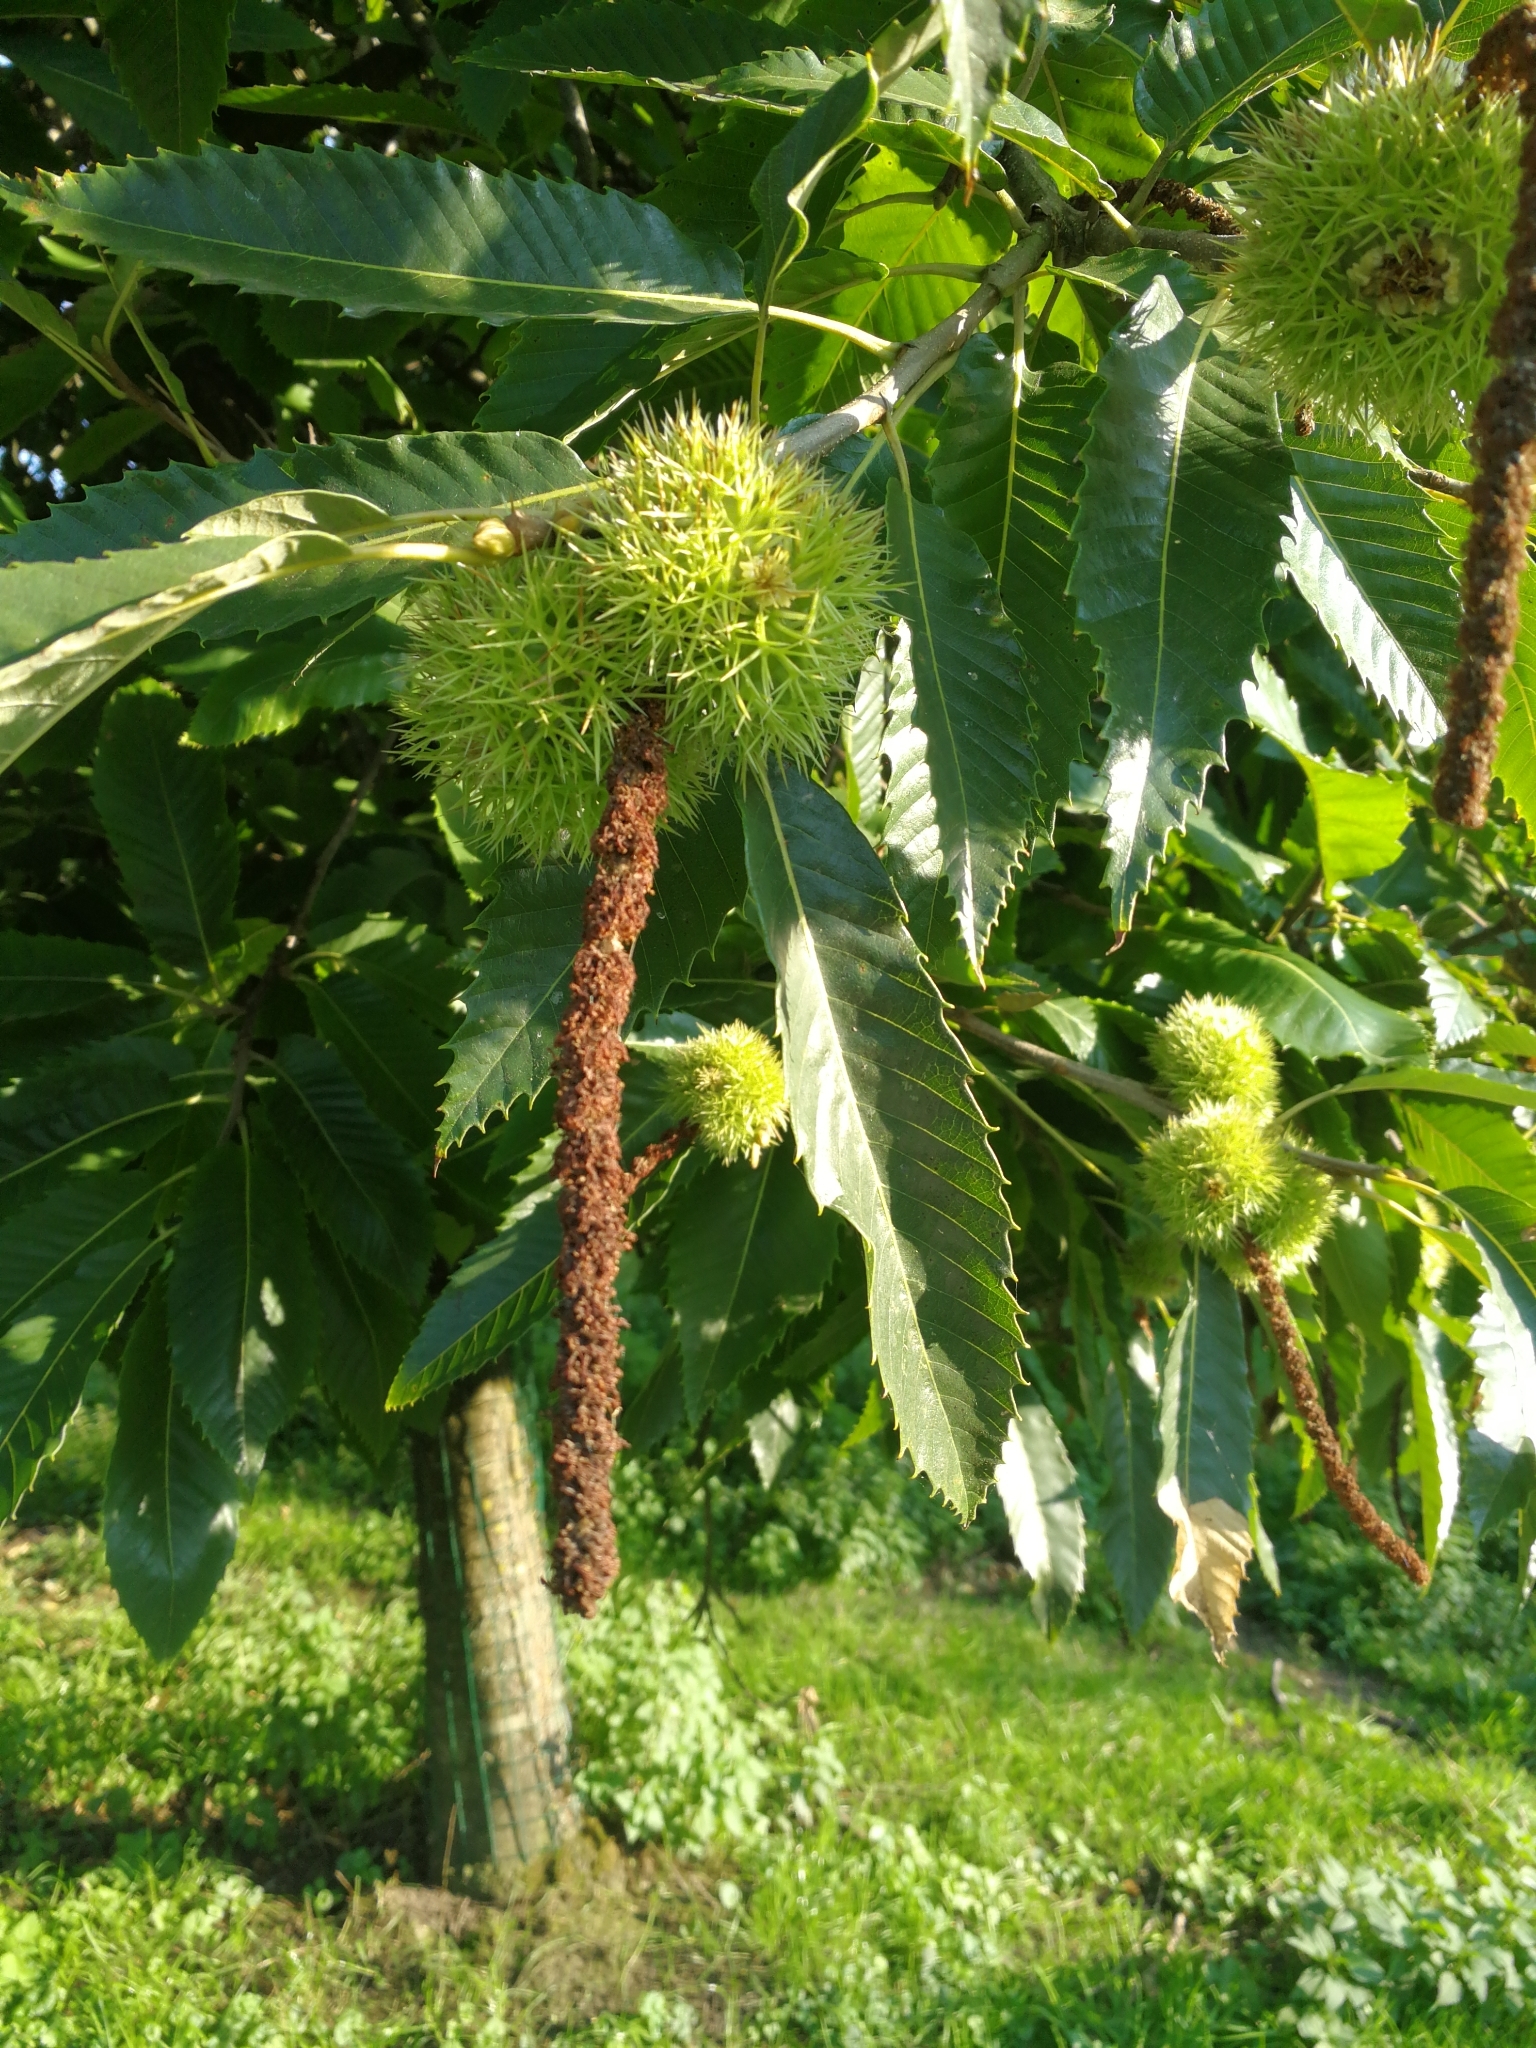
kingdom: Plantae
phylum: Tracheophyta
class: Magnoliopsida
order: Fagales
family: Fagaceae
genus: Castanea
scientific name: Castanea sativa
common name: Sweet chestnut
